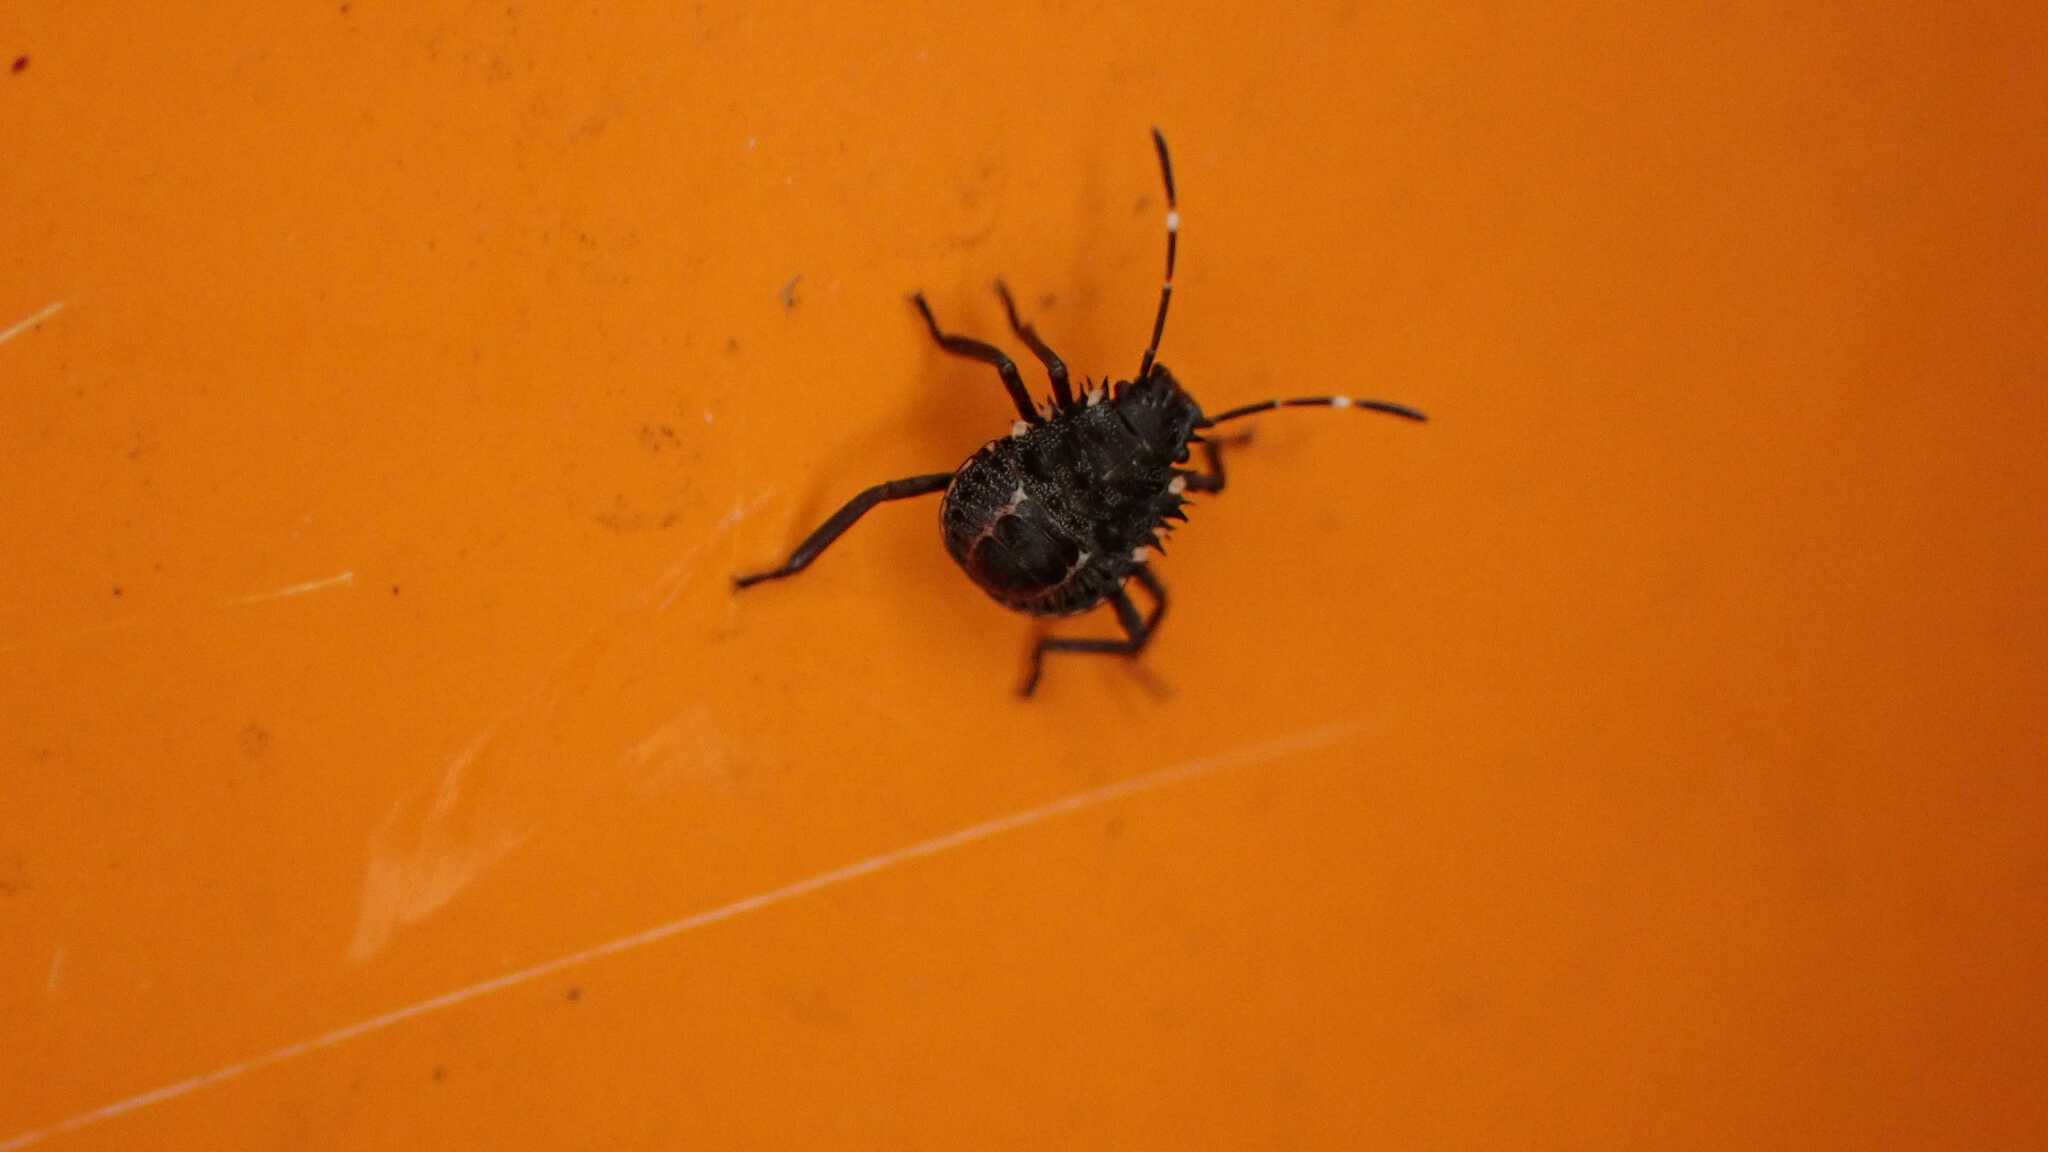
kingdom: Animalia
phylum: Arthropoda
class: Insecta
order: Hemiptera
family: Pentatomidae
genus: Halyomorpha
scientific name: Halyomorpha halys
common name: Brown marmorated stink bug
